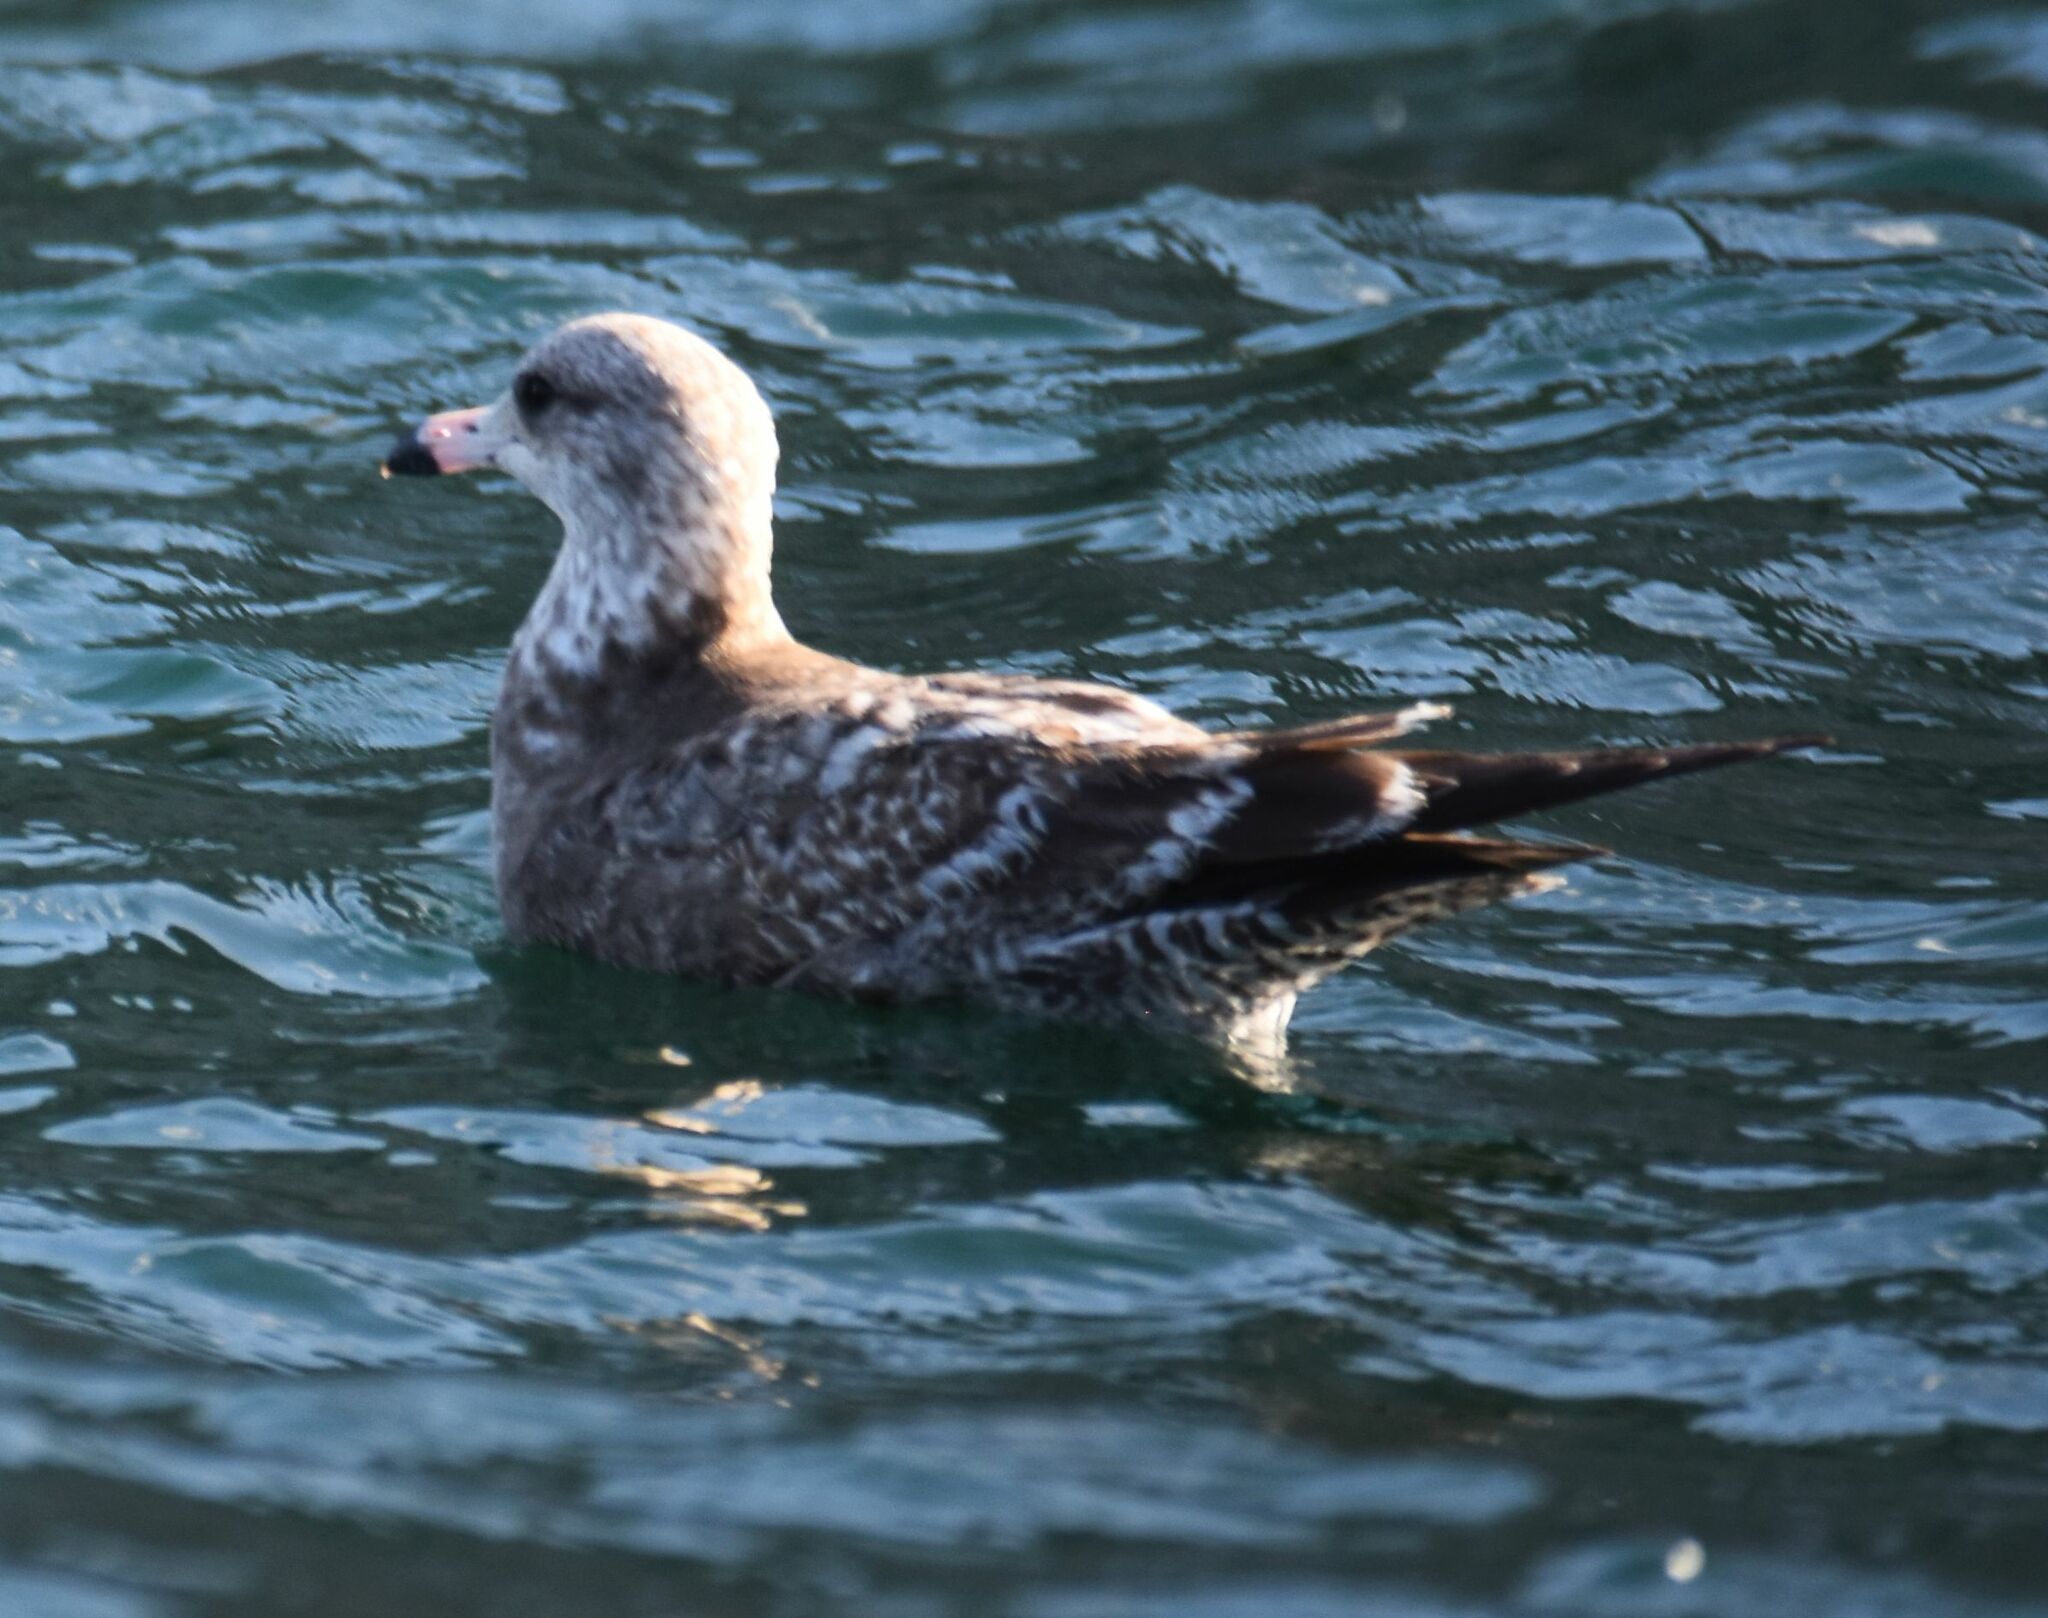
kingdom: Animalia
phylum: Chordata
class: Aves
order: Charadriiformes
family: Laridae
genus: Larus
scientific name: Larus occidentalis
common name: Western gull
